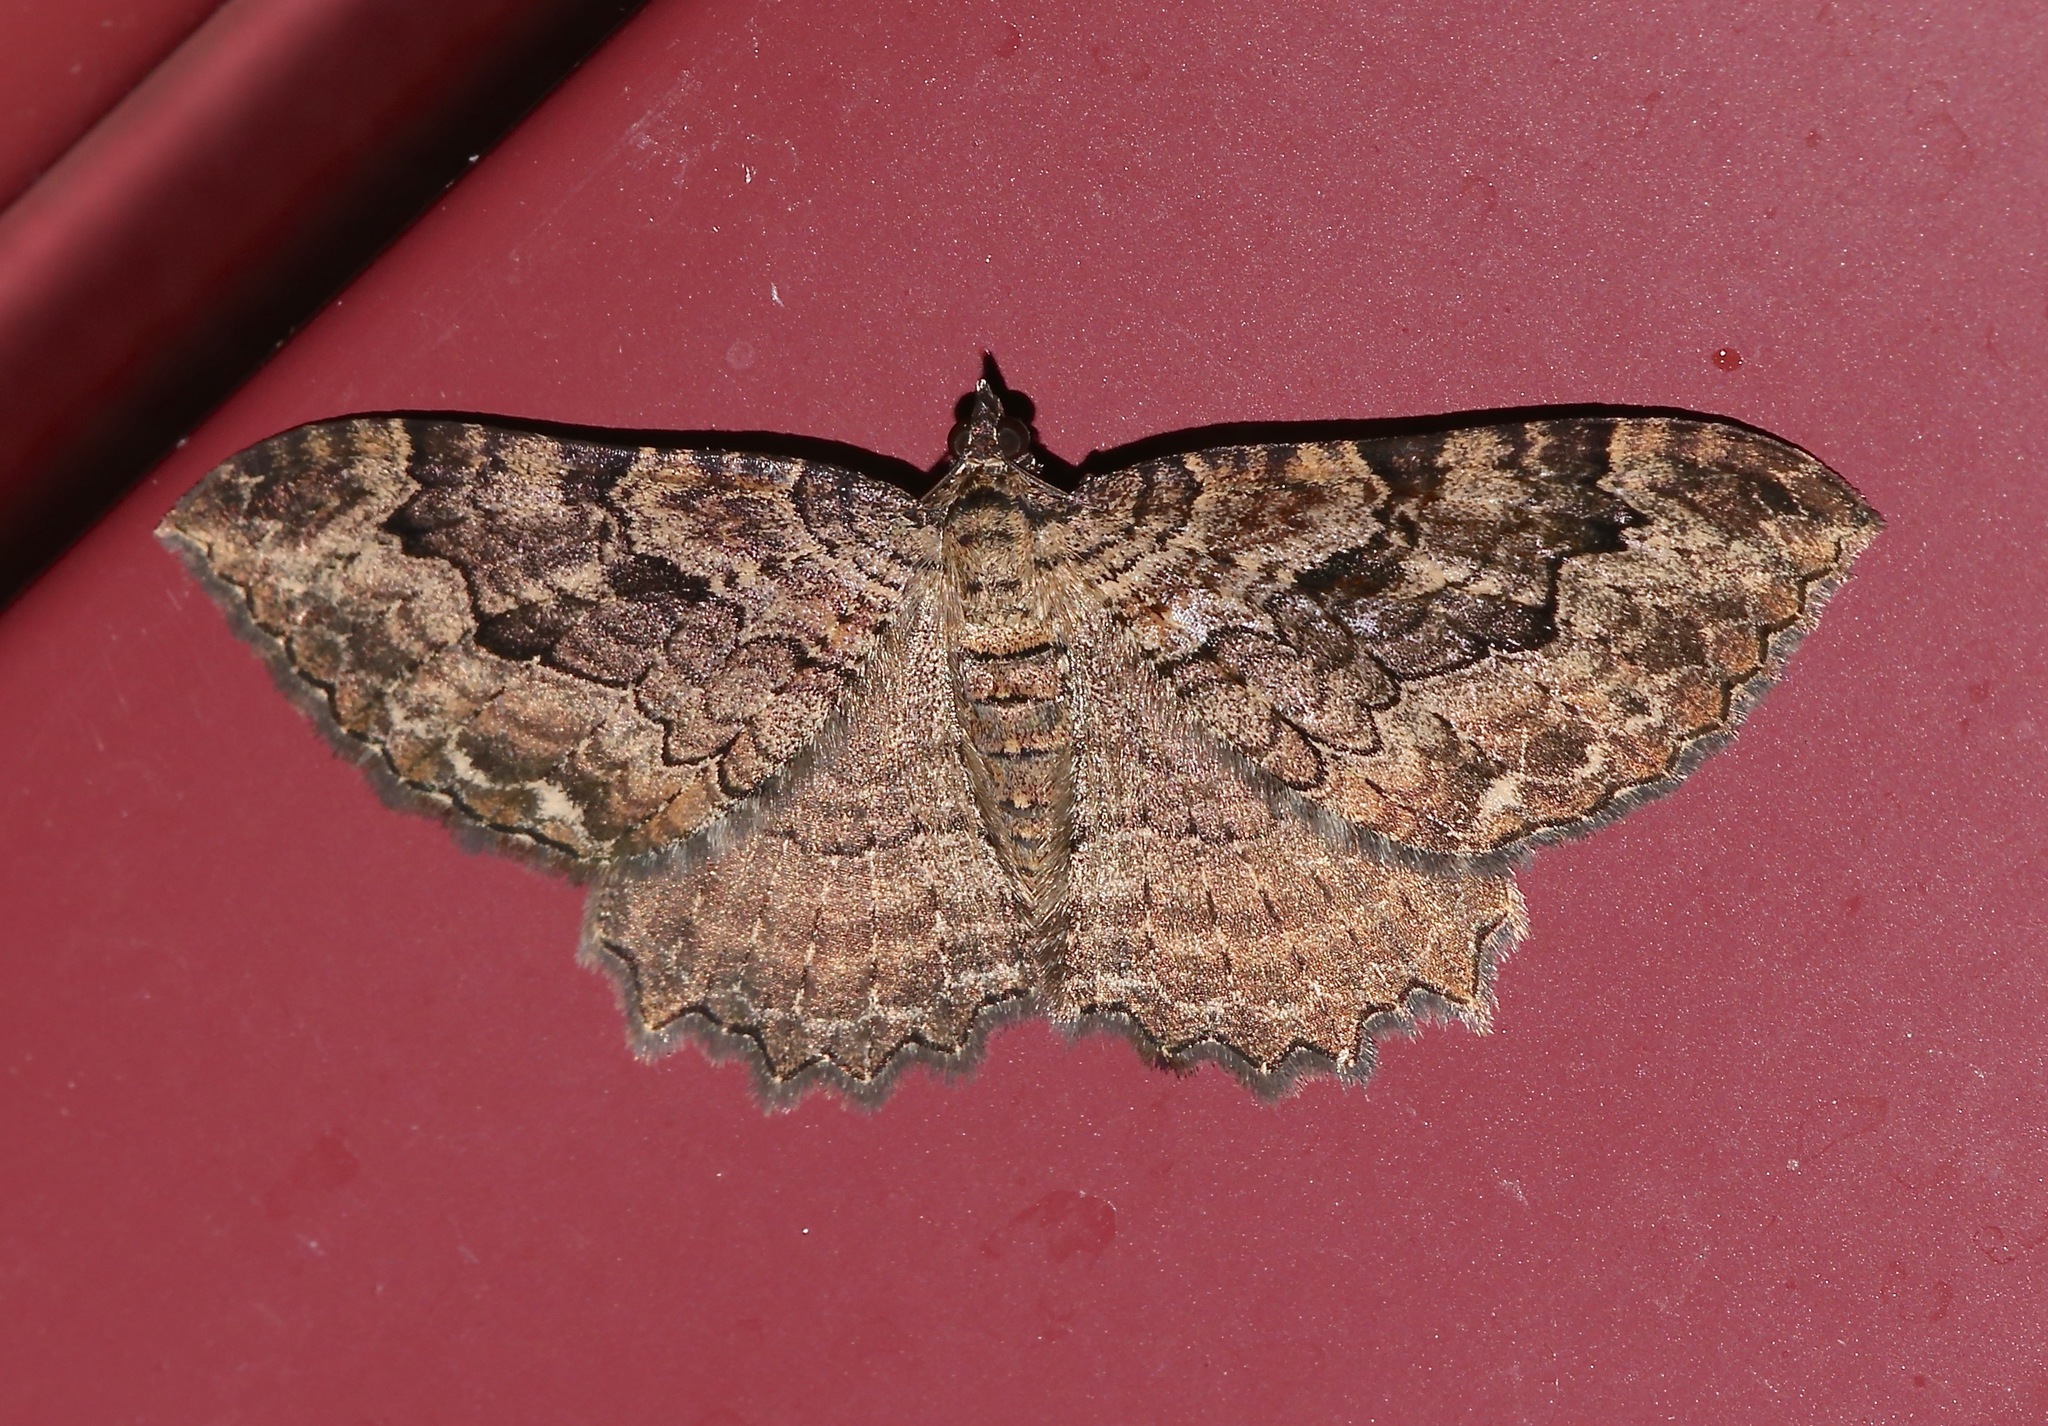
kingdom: Animalia
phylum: Arthropoda
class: Insecta
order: Lepidoptera
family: Geometridae
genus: Rheumaptera
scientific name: Rheumaptera
